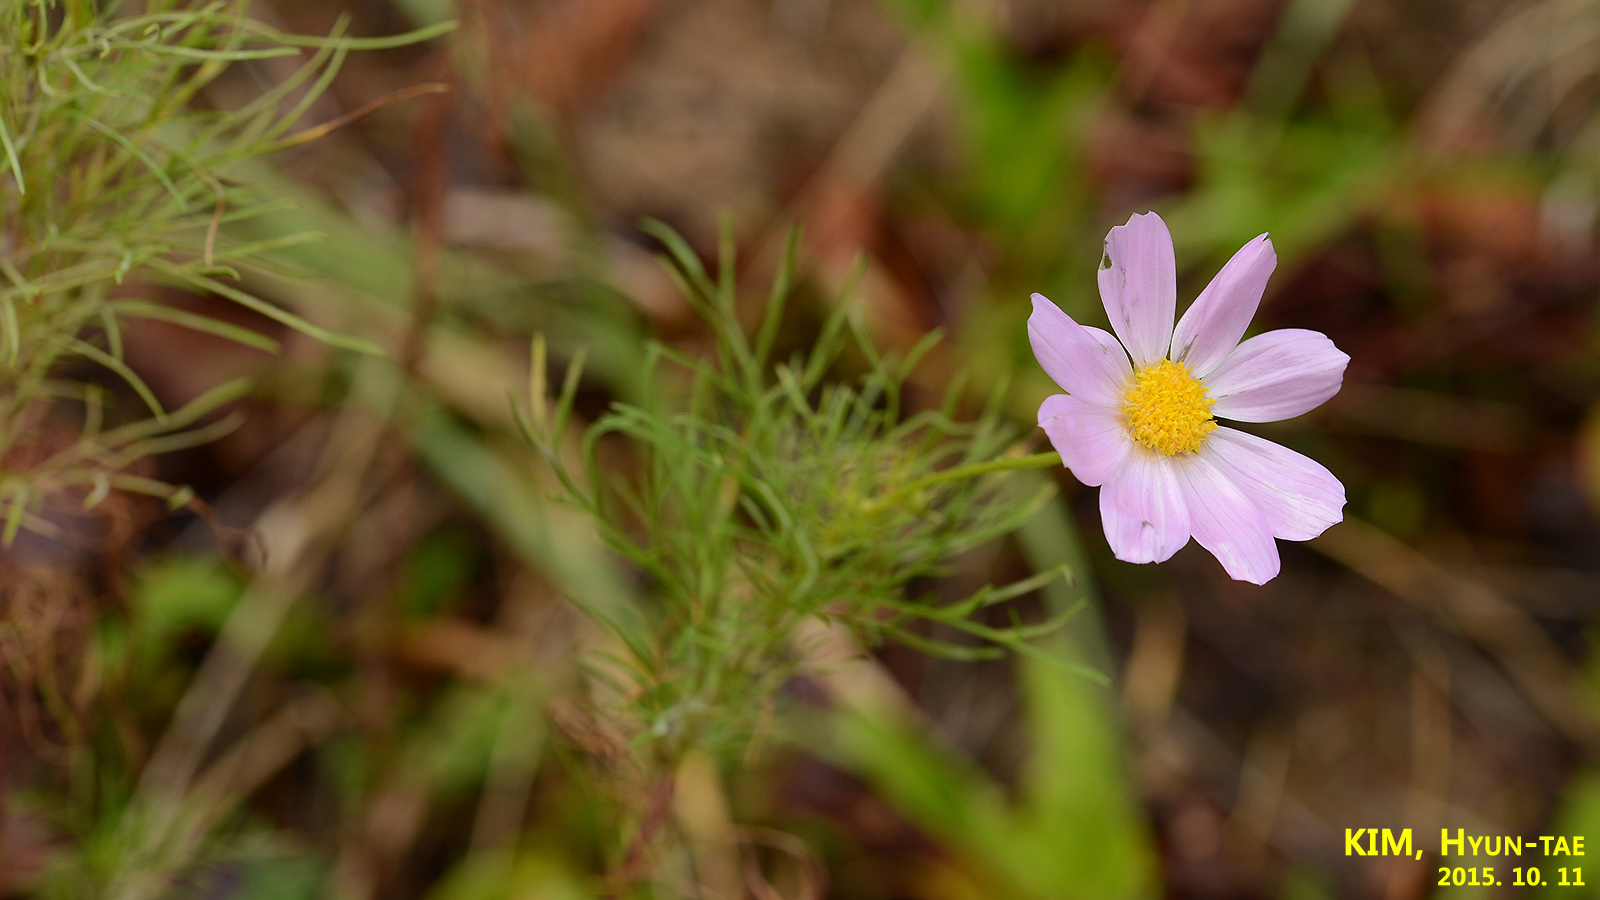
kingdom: Plantae
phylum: Tracheophyta
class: Magnoliopsida
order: Asterales
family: Asteraceae
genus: Cosmos
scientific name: Cosmos bipinnatus
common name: Garden cosmos
